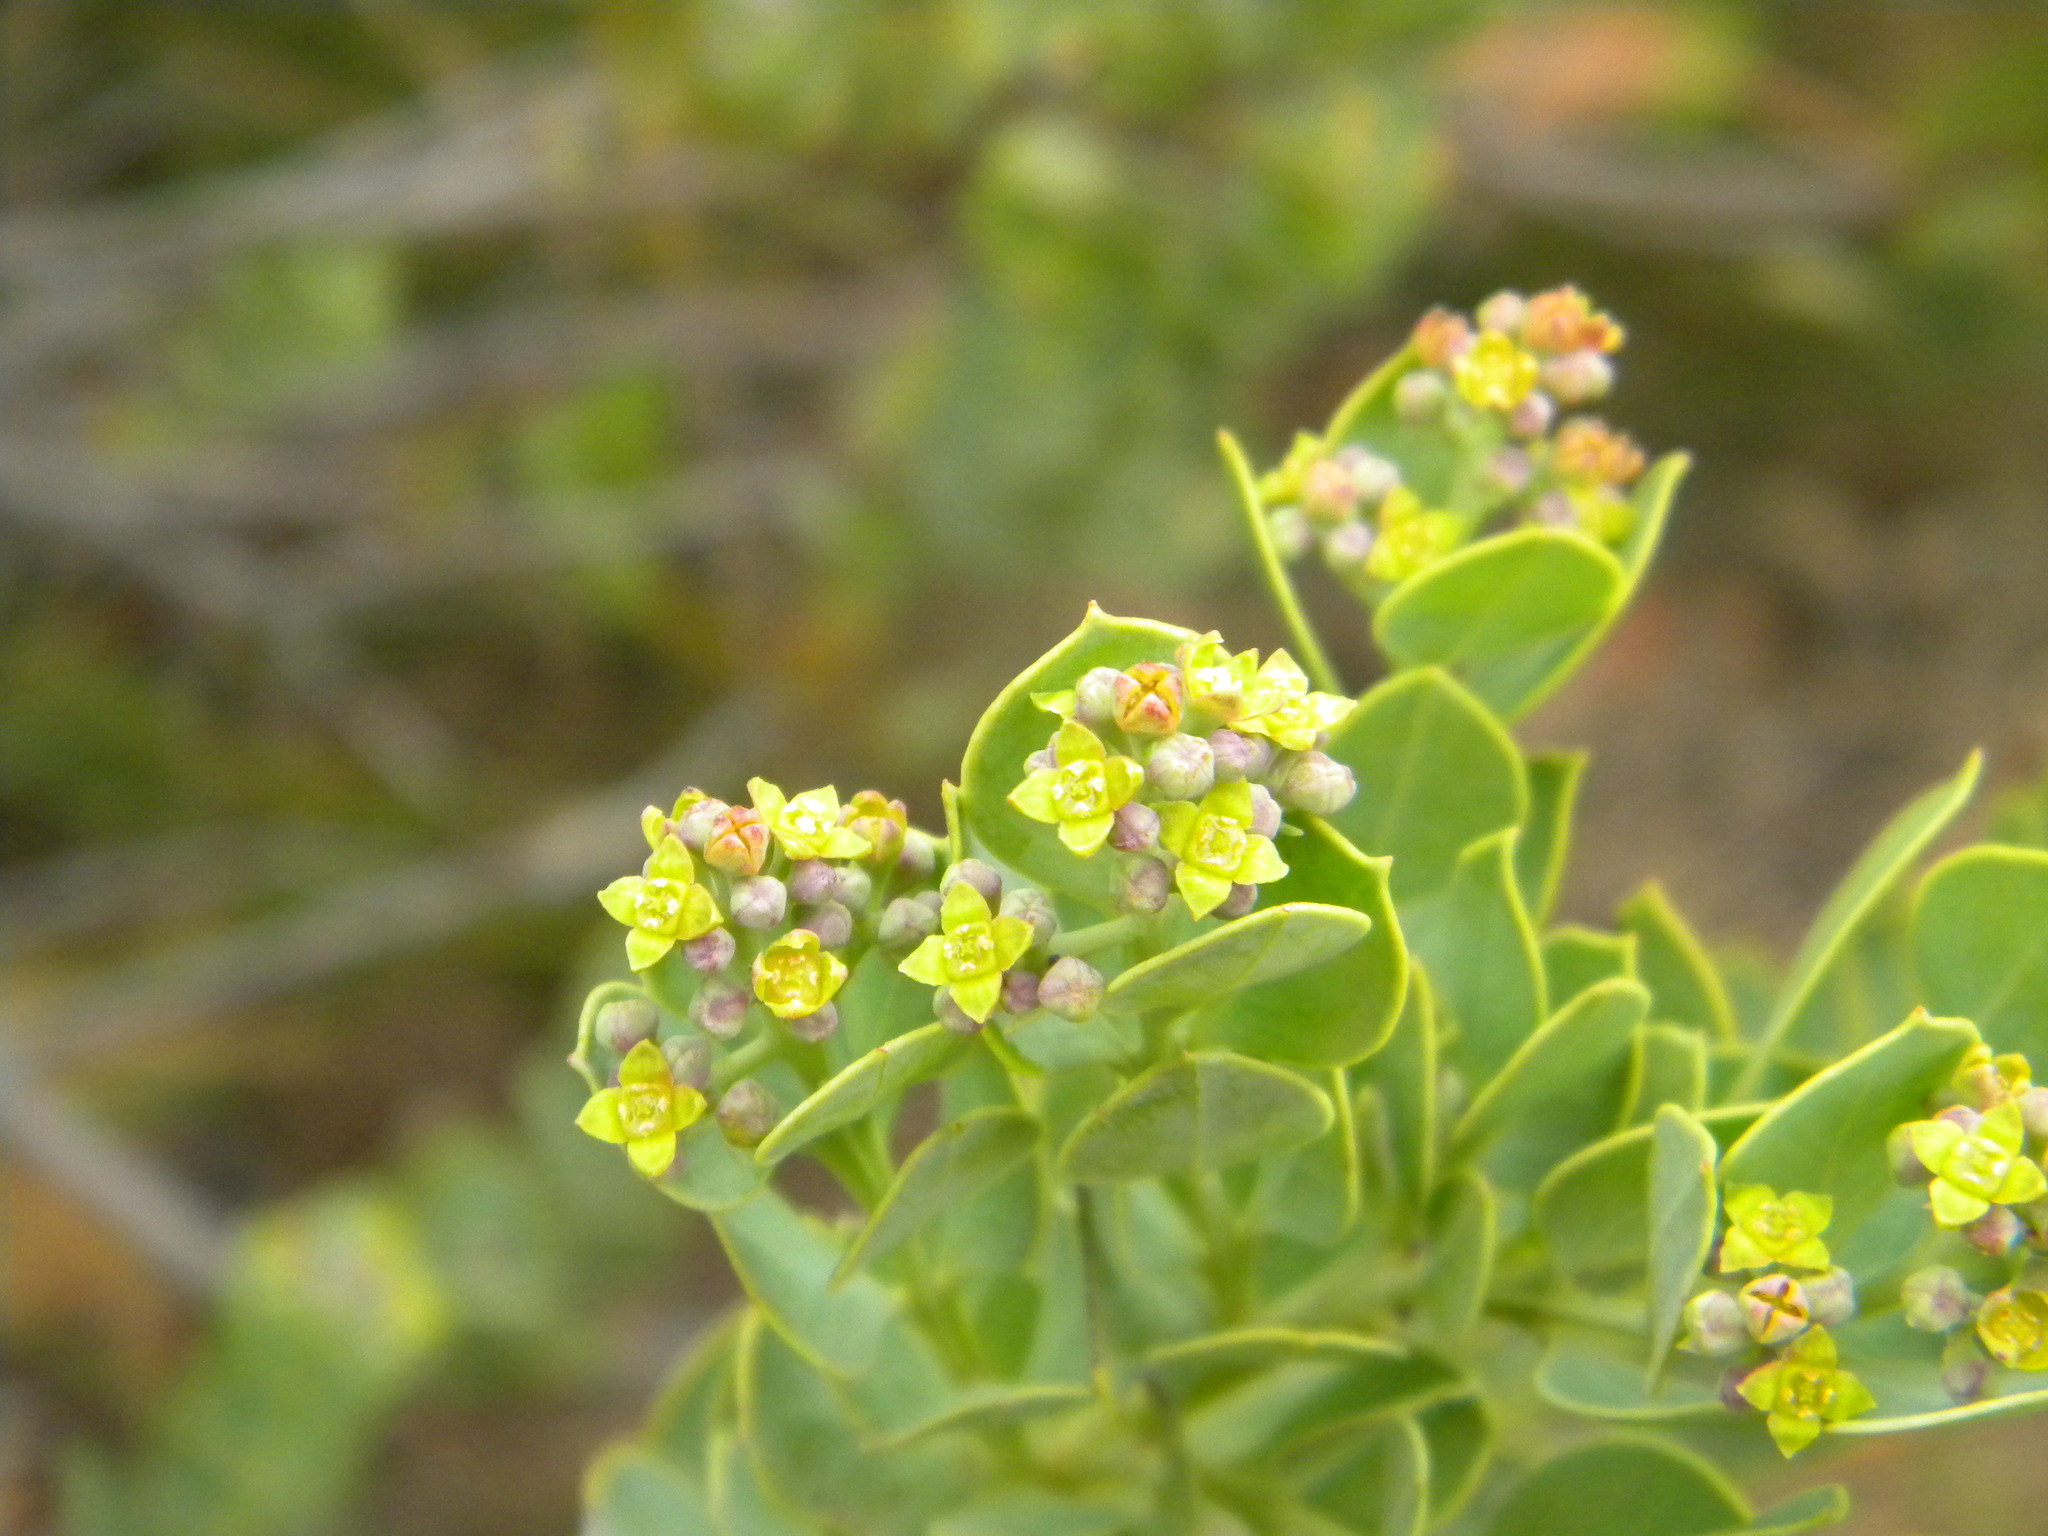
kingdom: Plantae
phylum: Tracheophyta
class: Magnoliopsida
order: Santalales
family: Santalaceae
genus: Osyris
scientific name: Osyris compressa
